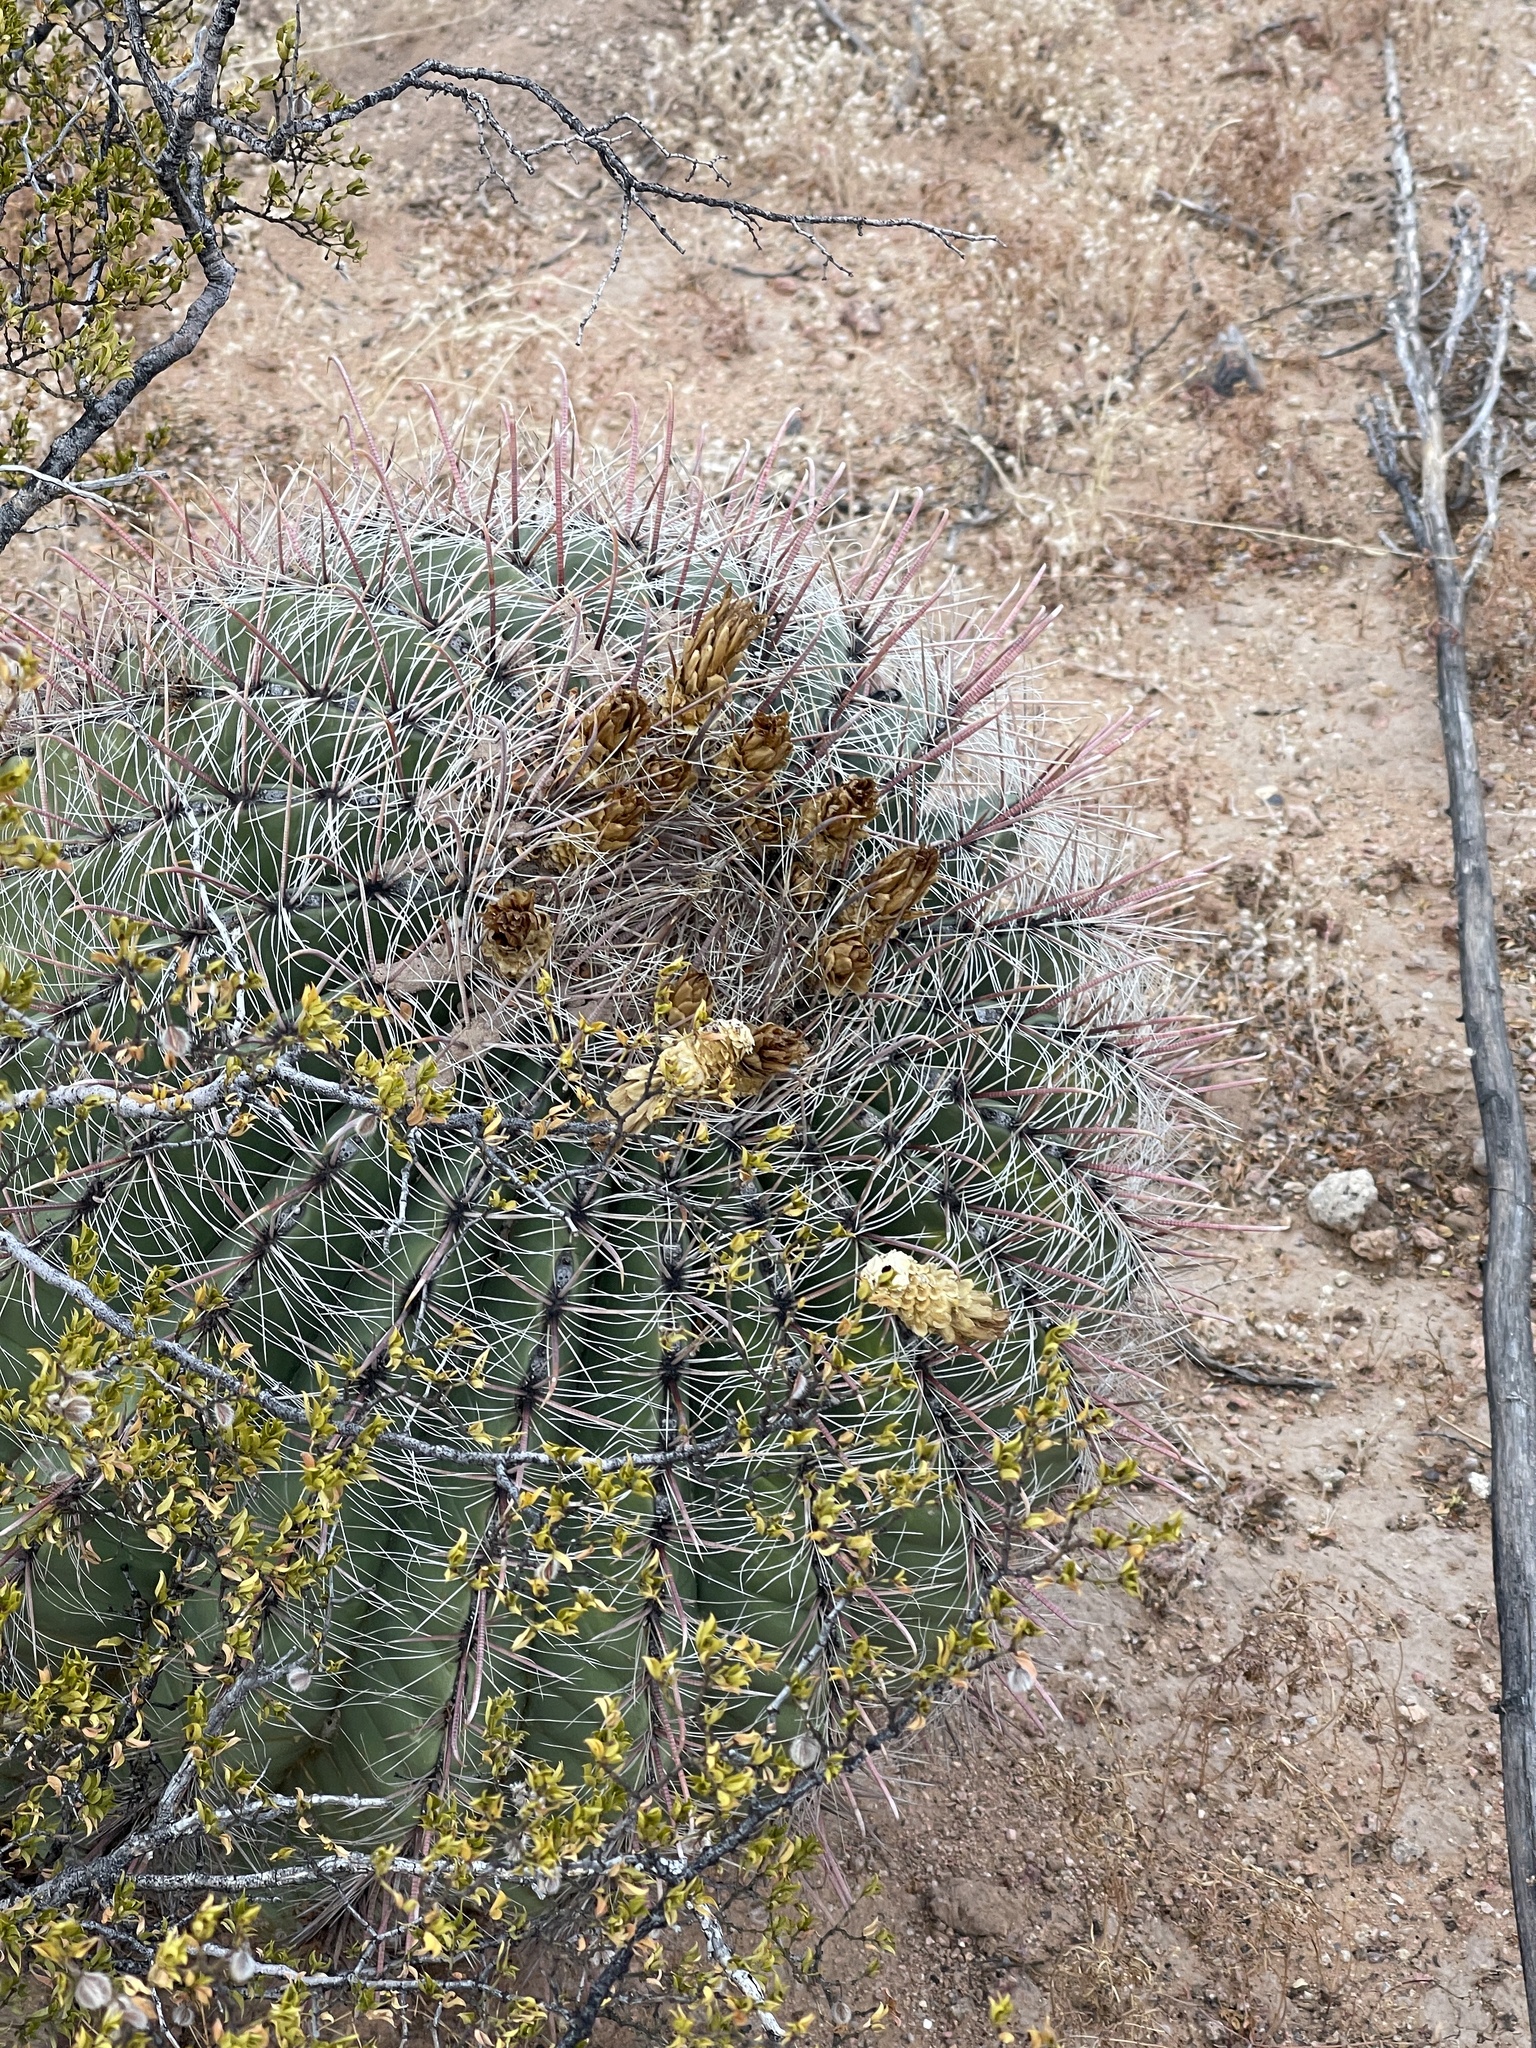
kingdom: Plantae
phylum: Tracheophyta
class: Magnoliopsida
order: Caryophyllales
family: Cactaceae
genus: Ferocactus
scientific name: Ferocactus wislizeni
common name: Candy barrel cactus
